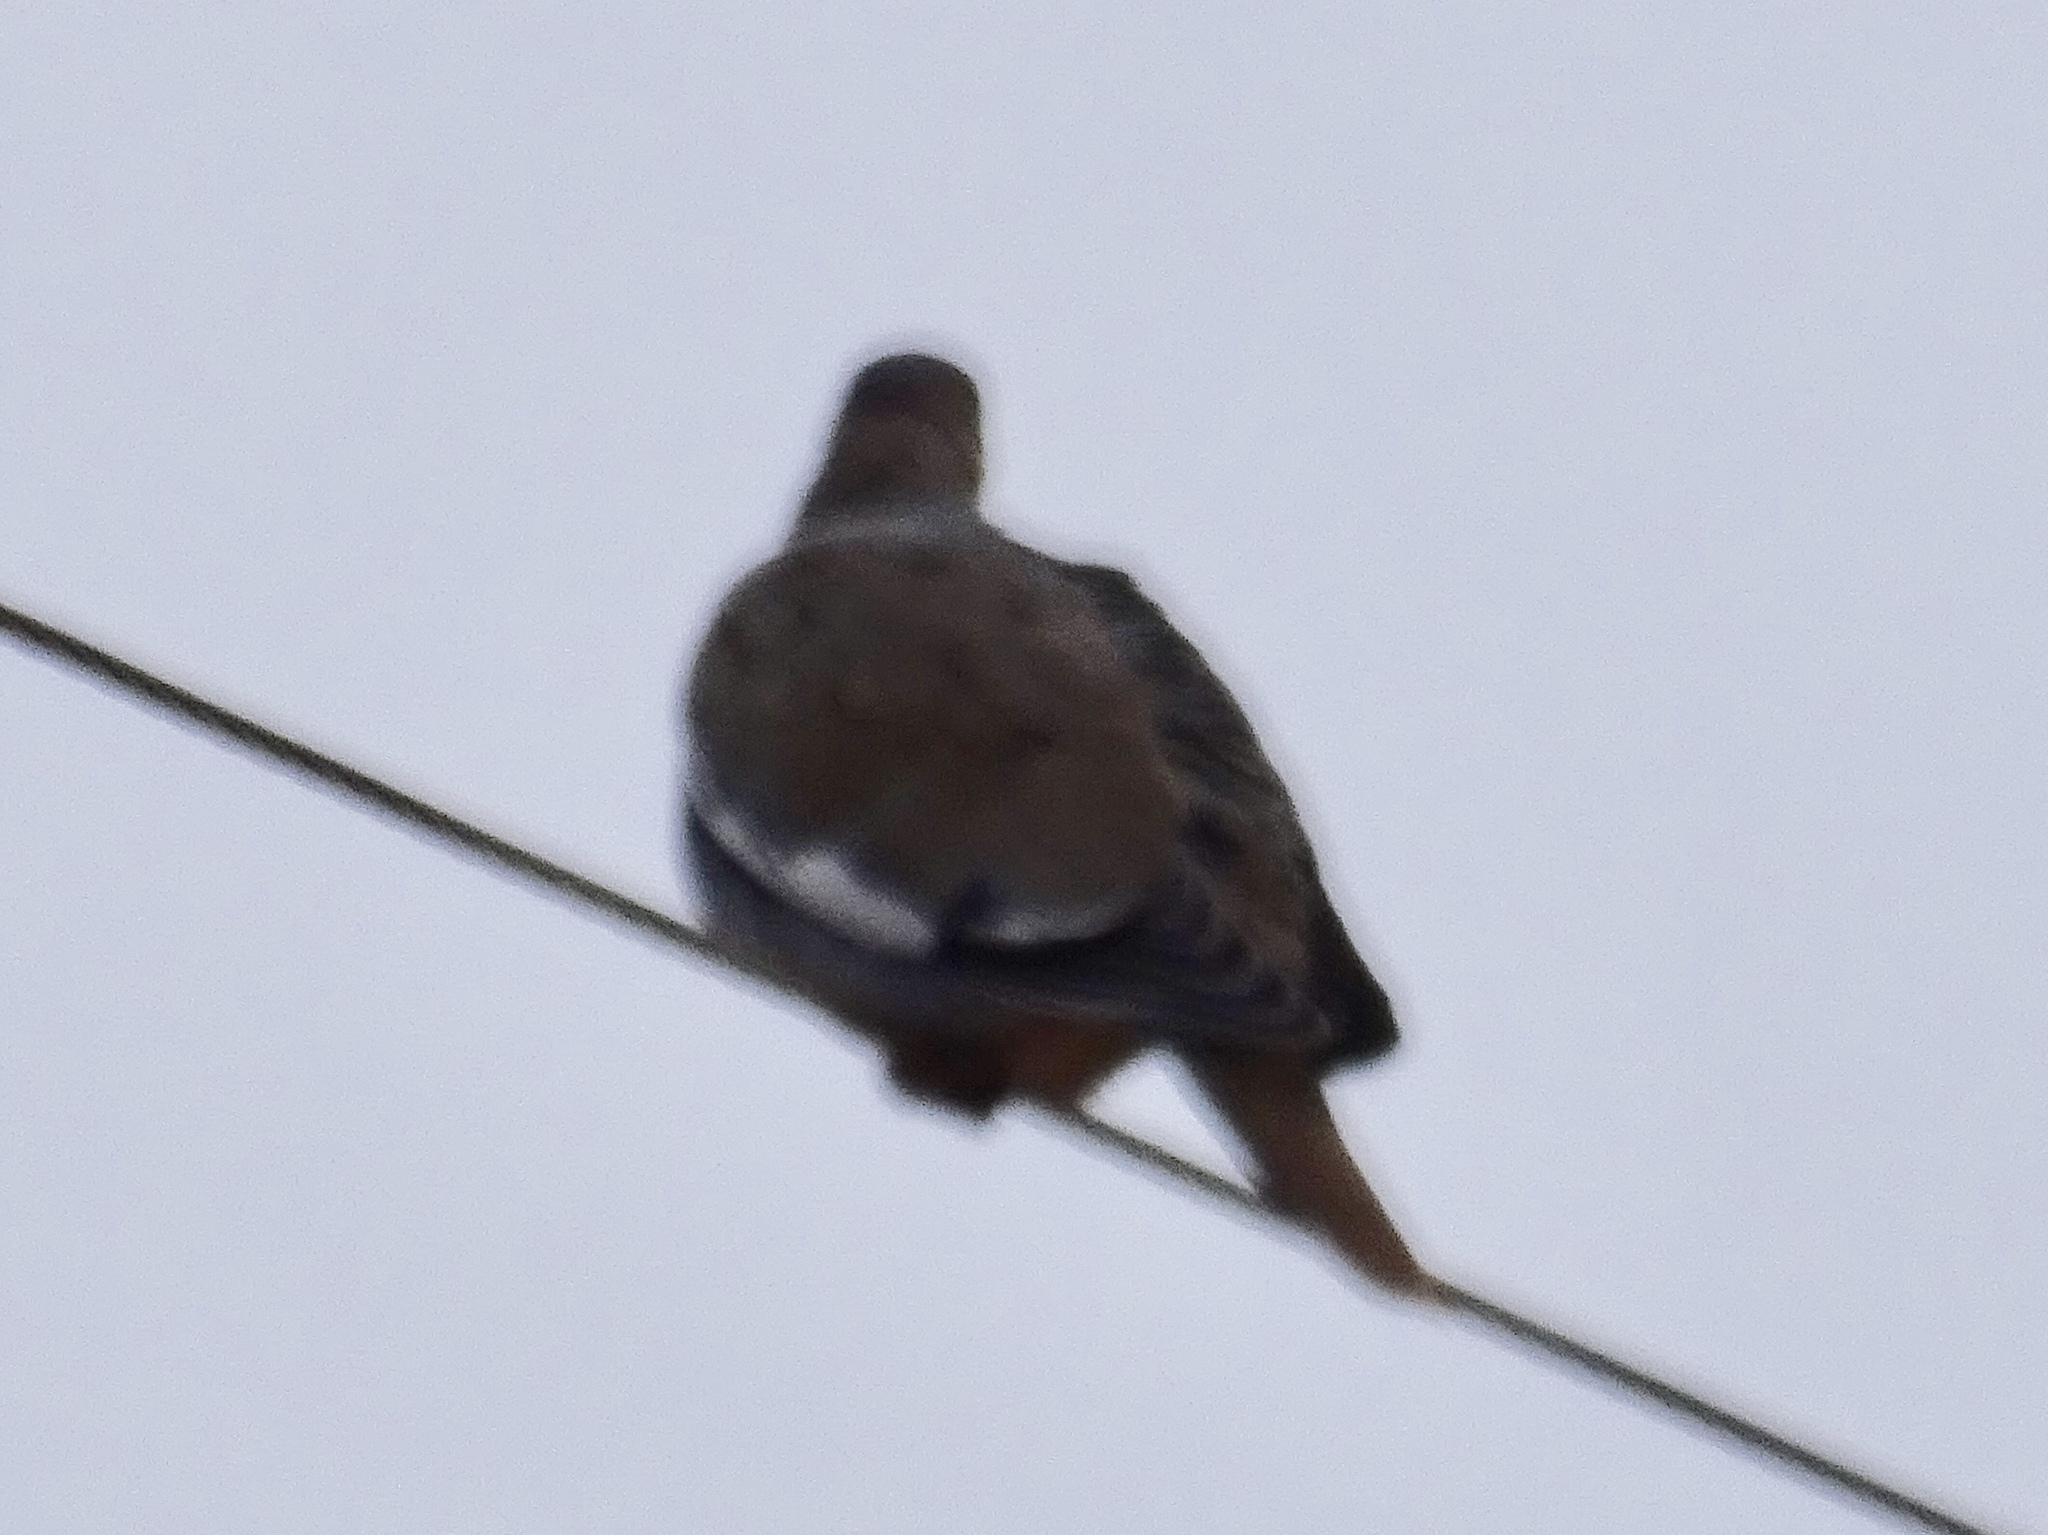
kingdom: Animalia
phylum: Chordata
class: Aves
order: Columbiformes
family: Columbidae
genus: Zenaida
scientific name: Zenaida asiatica
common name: White-winged dove
